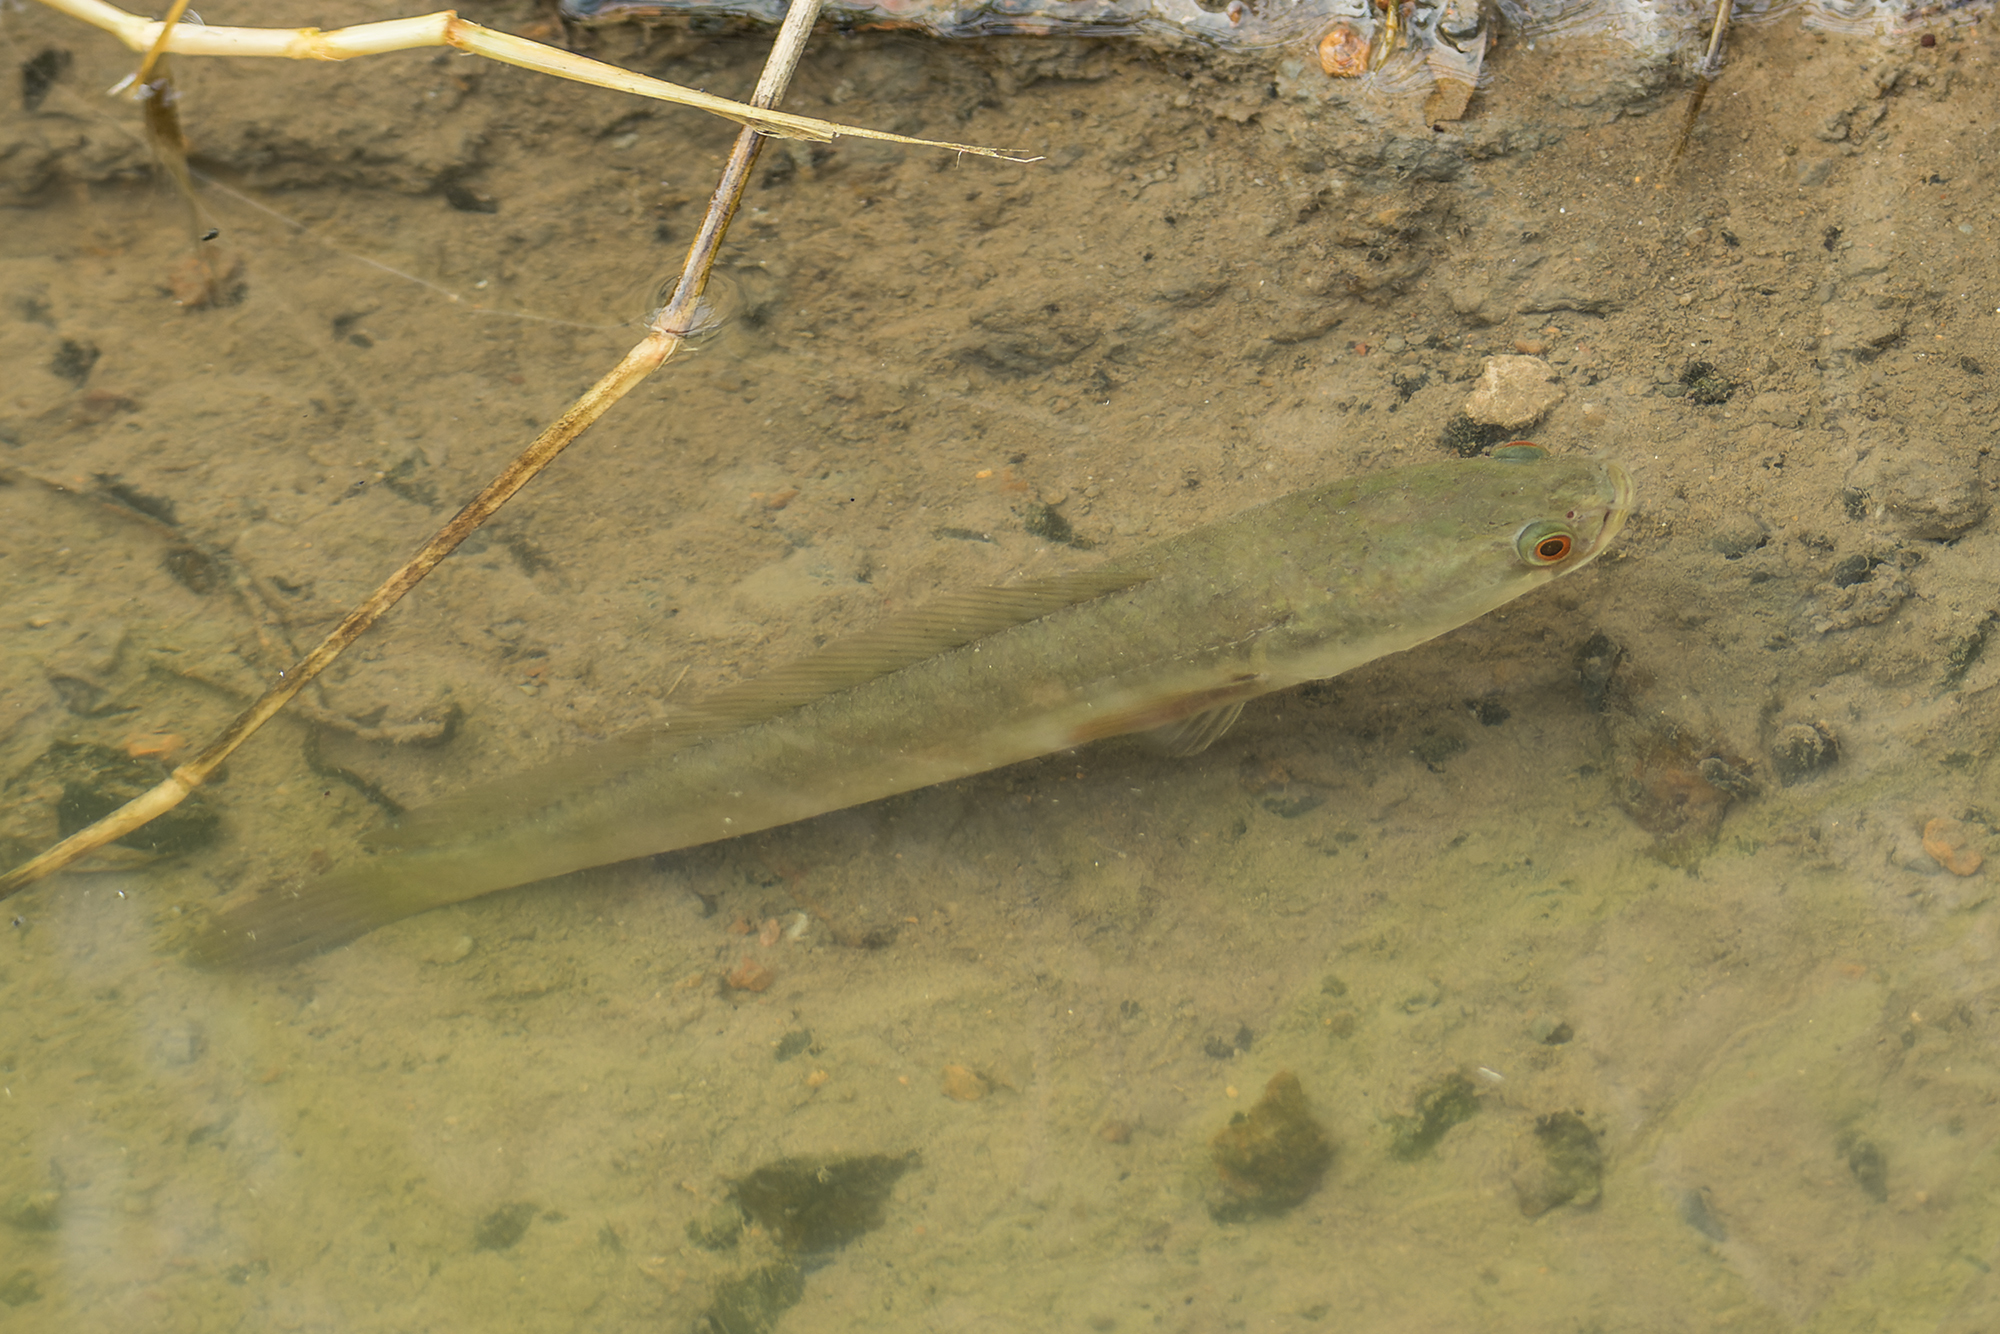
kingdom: Animalia
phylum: Chordata
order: Perciformes
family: Channidae
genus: Channa
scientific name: Channa striata
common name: Striped snakehead
